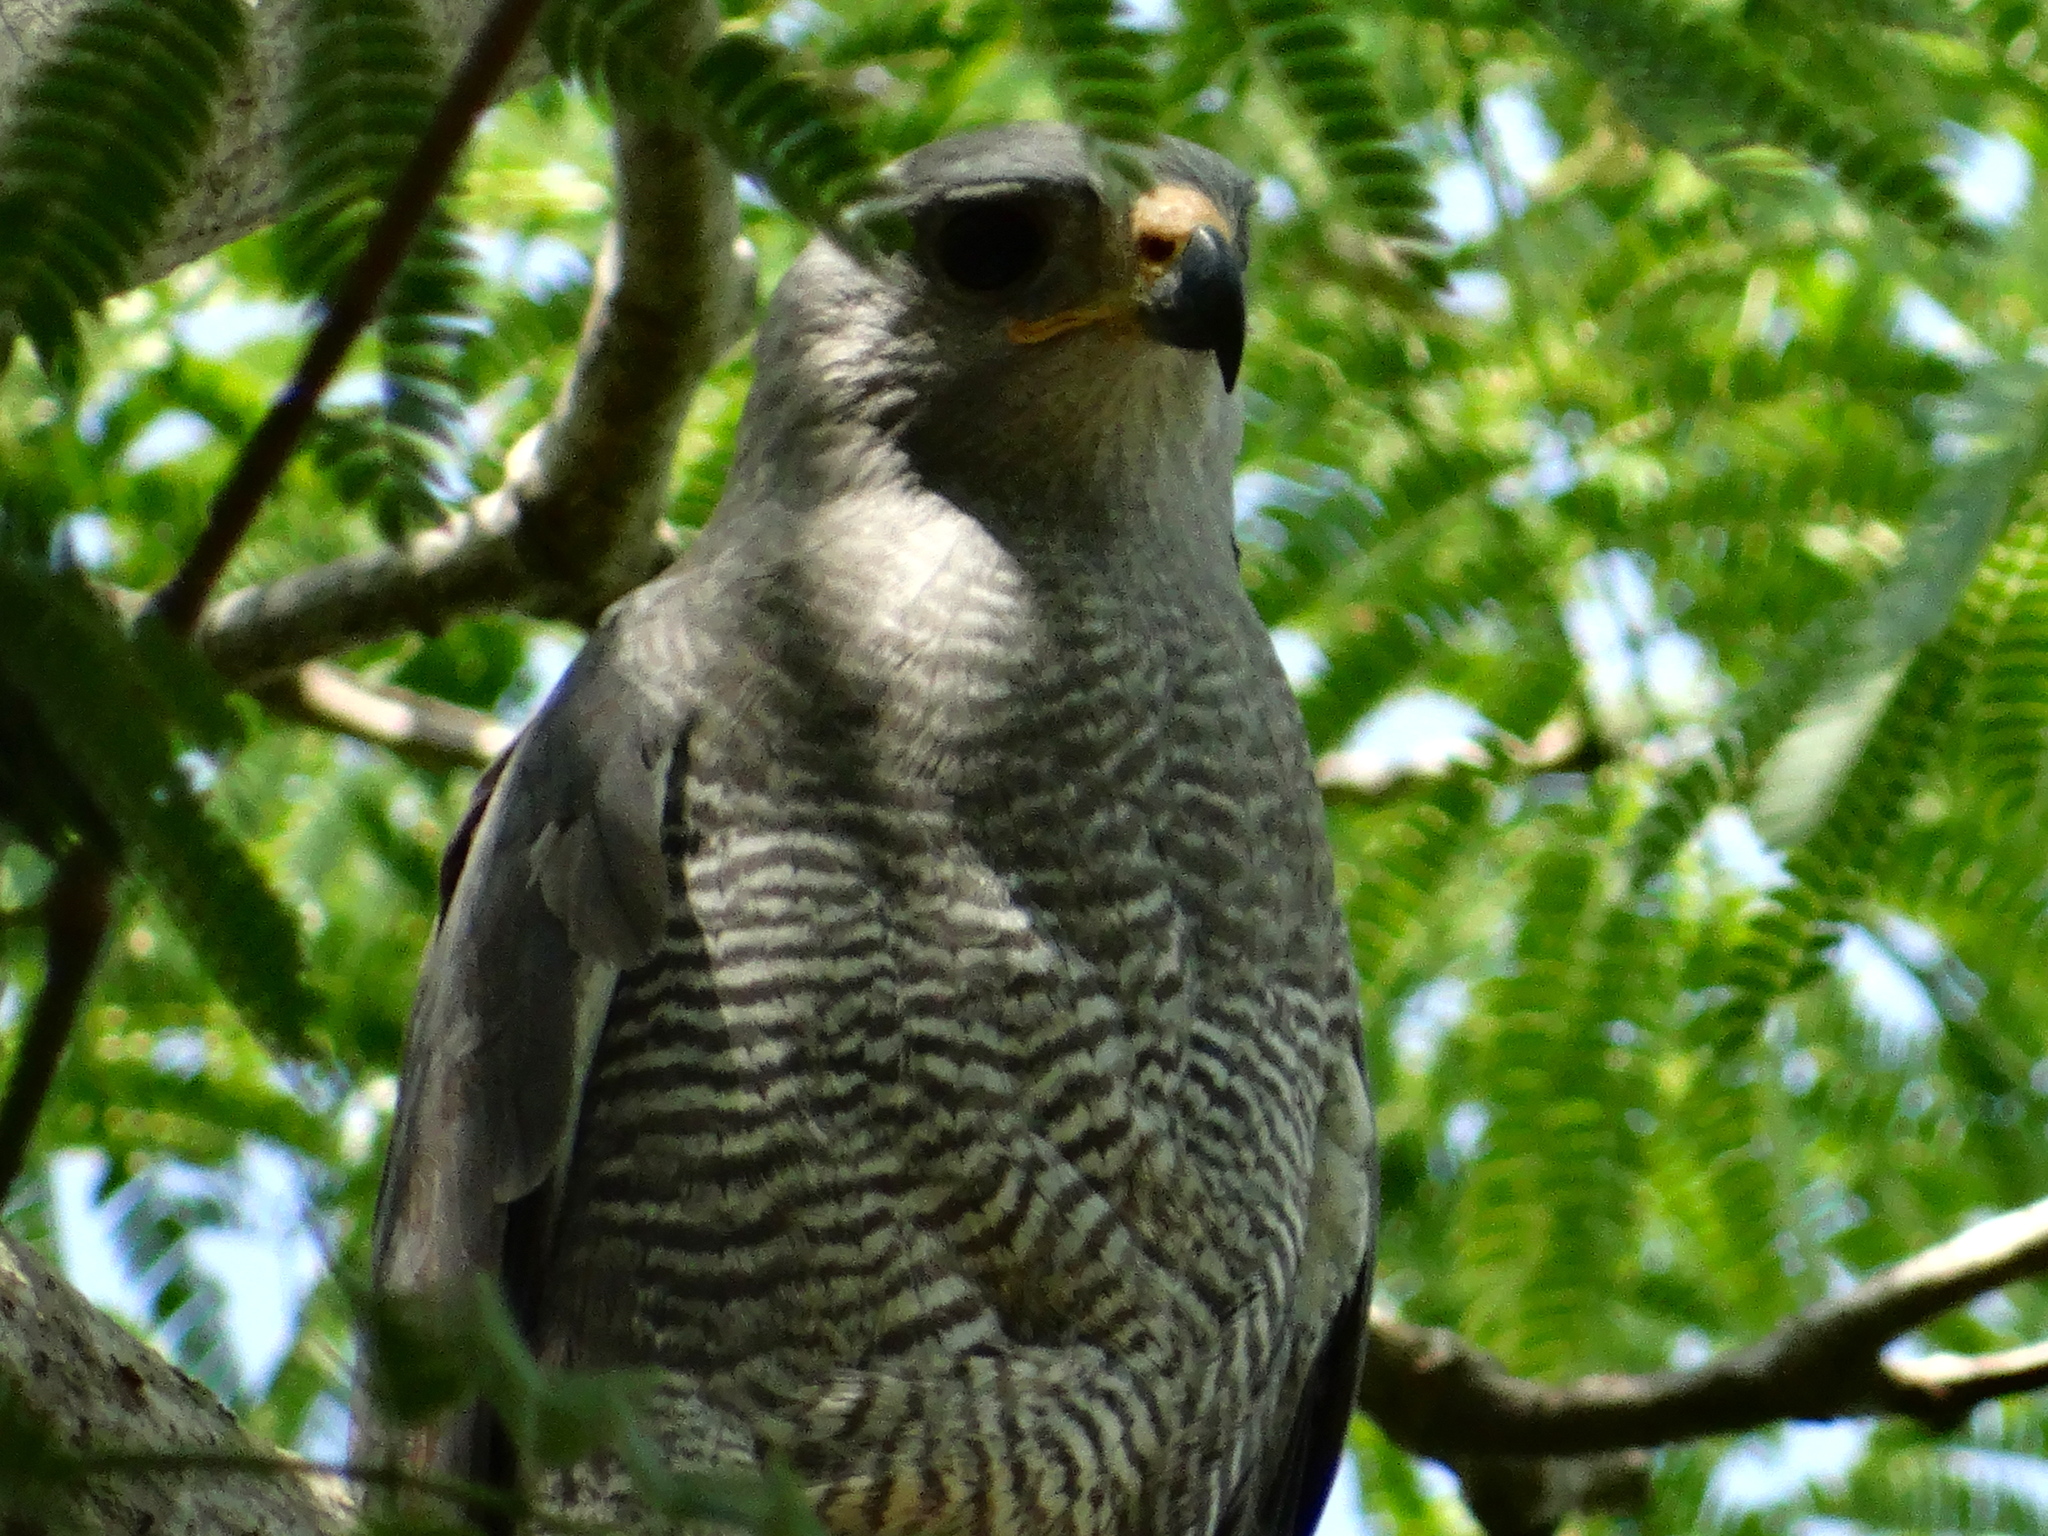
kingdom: Animalia
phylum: Chordata
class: Aves
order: Accipitriformes
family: Accipitridae
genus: Buteo
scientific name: Buteo nitidus
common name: Grey-lined hawk
